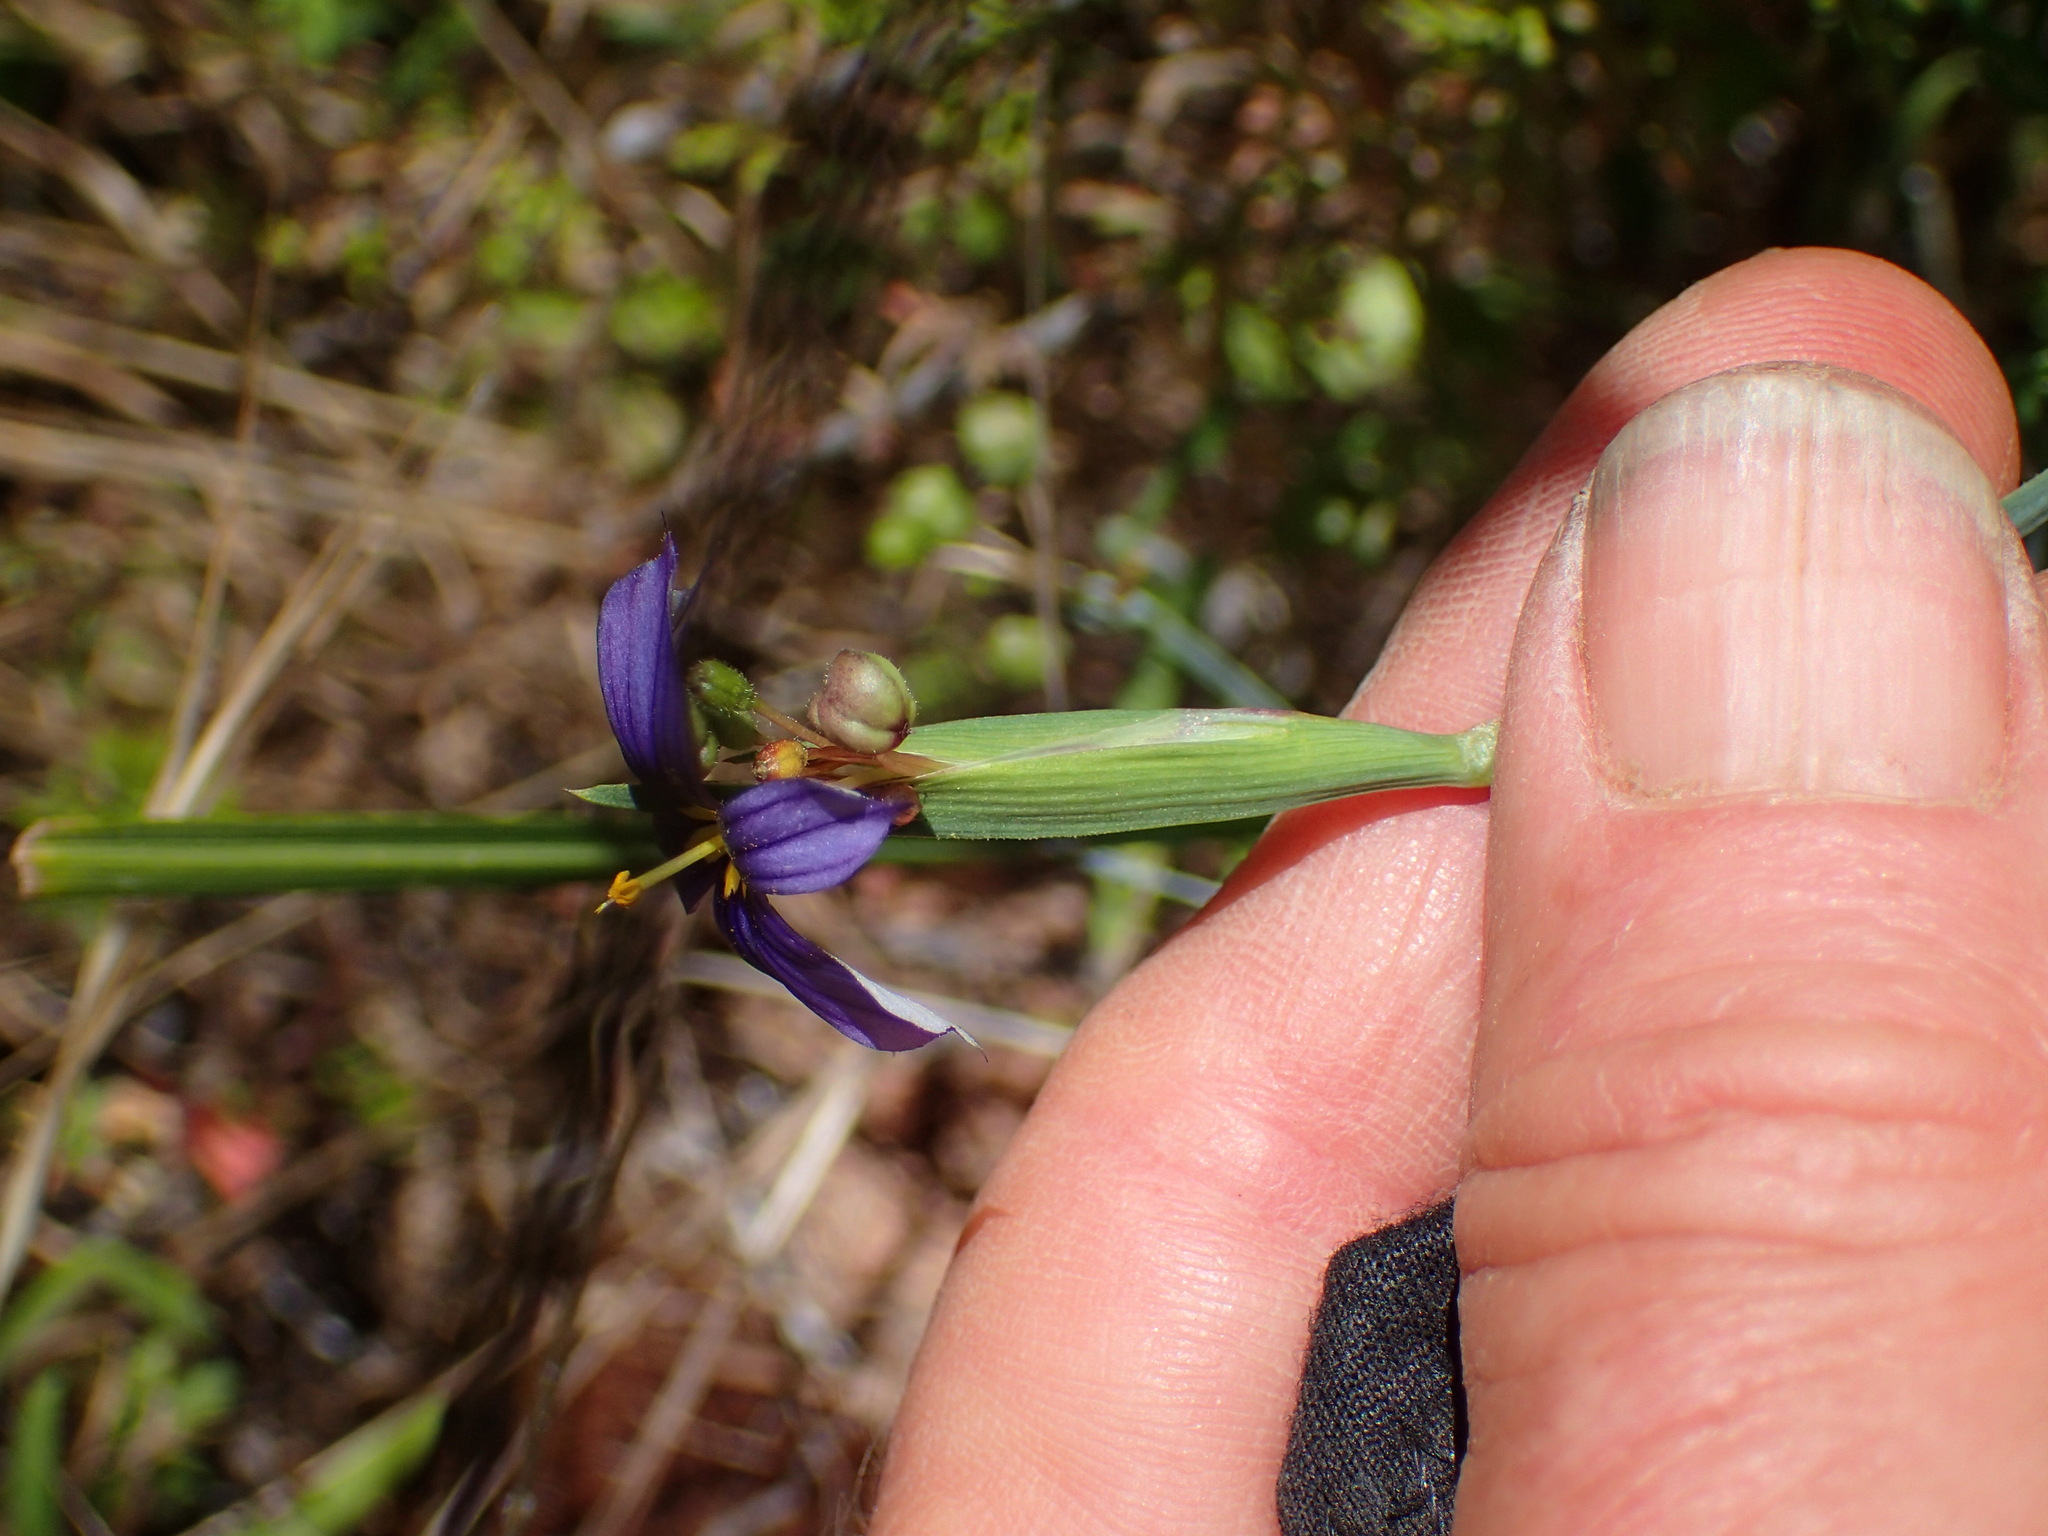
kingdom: Plantae
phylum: Tracheophyta
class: Liliopsida
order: Asparagales
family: Iridaceae
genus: Sisyrinchium
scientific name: Sisyrinchium bellum
